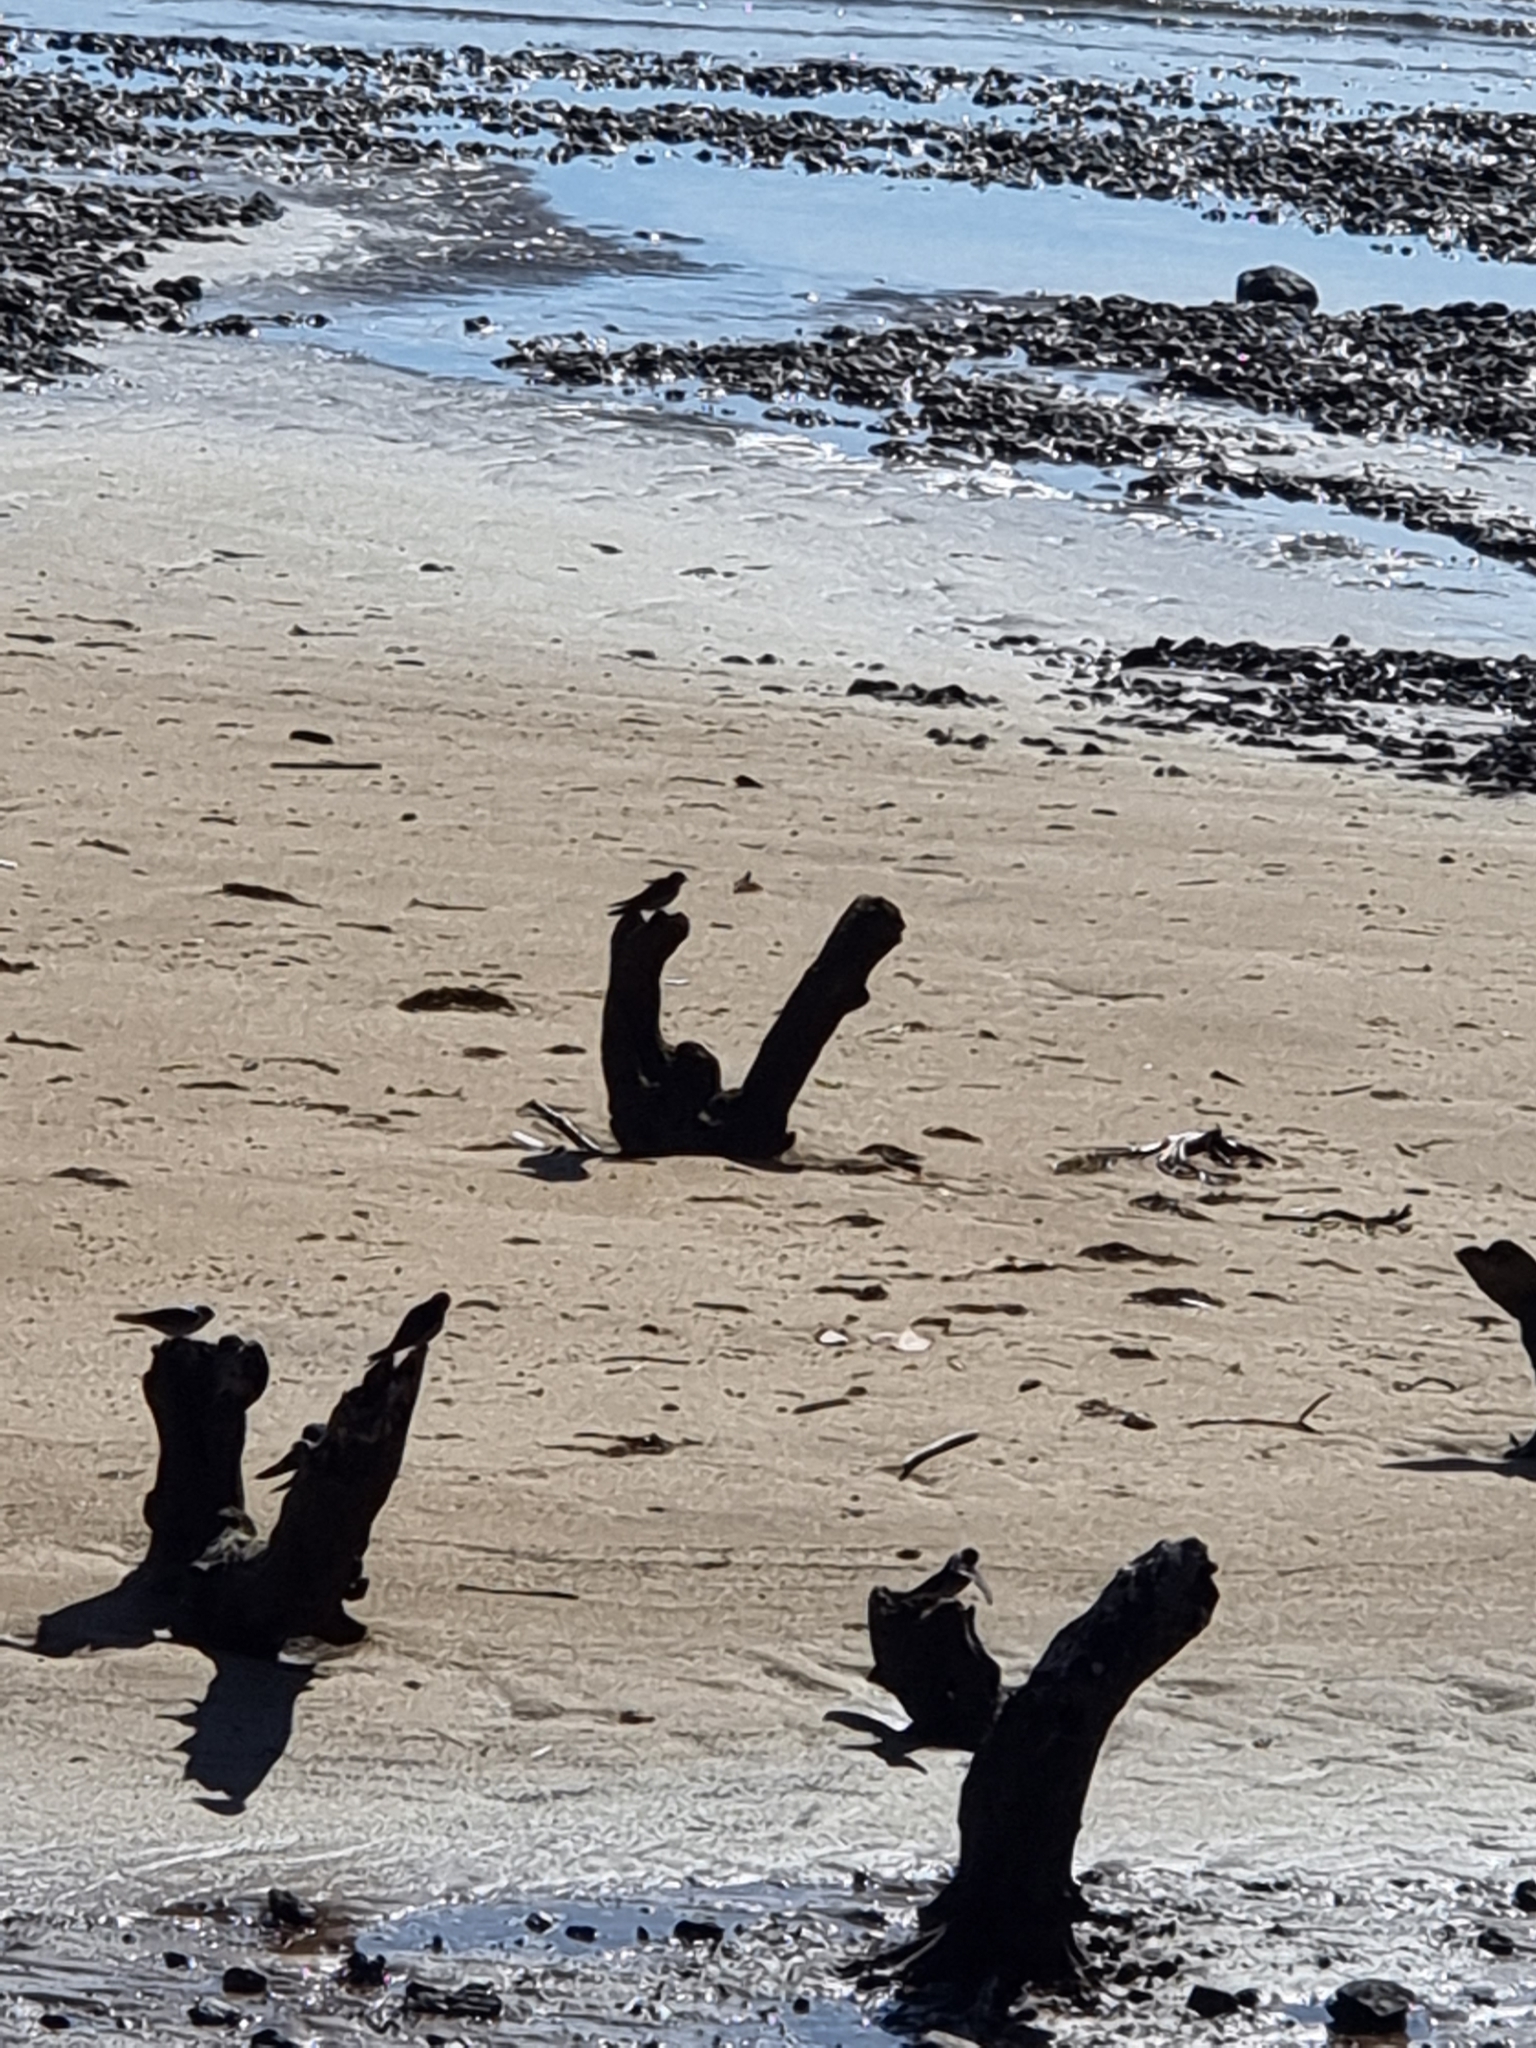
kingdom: Animalia
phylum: Chordata
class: Aves
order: Passeriformes
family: Hirundinidae
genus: Hirundo
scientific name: Hirundo neoxena
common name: Welcome swallow
